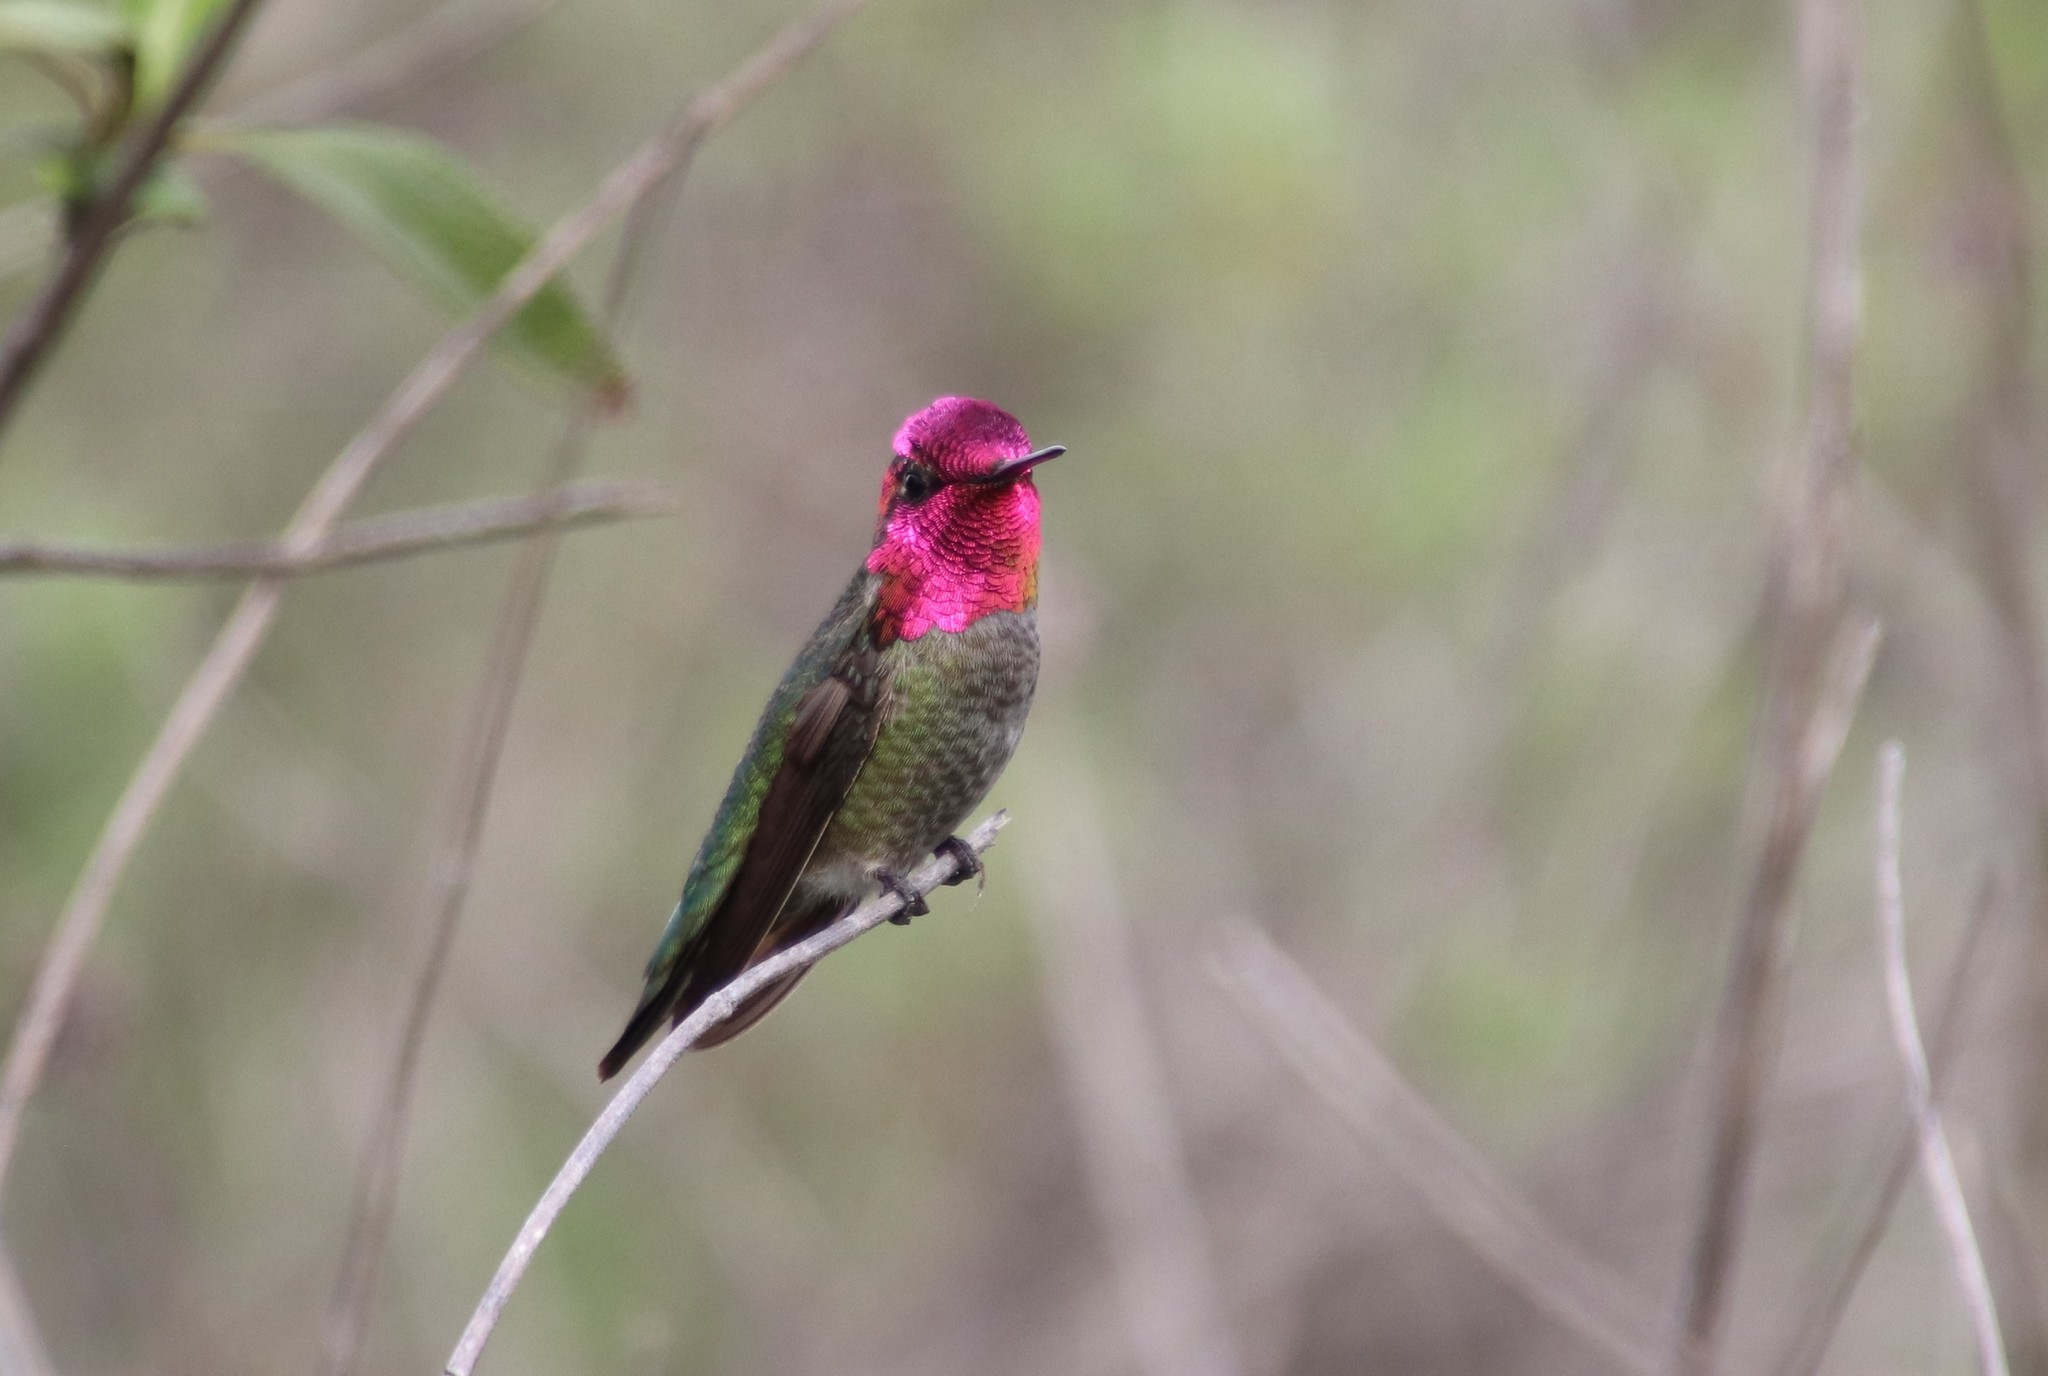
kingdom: Animalia
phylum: Chordata
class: Aves
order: Apodiformes
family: Trochilidae
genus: Calypte
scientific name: Calypte anna
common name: Anna's hummingbird
